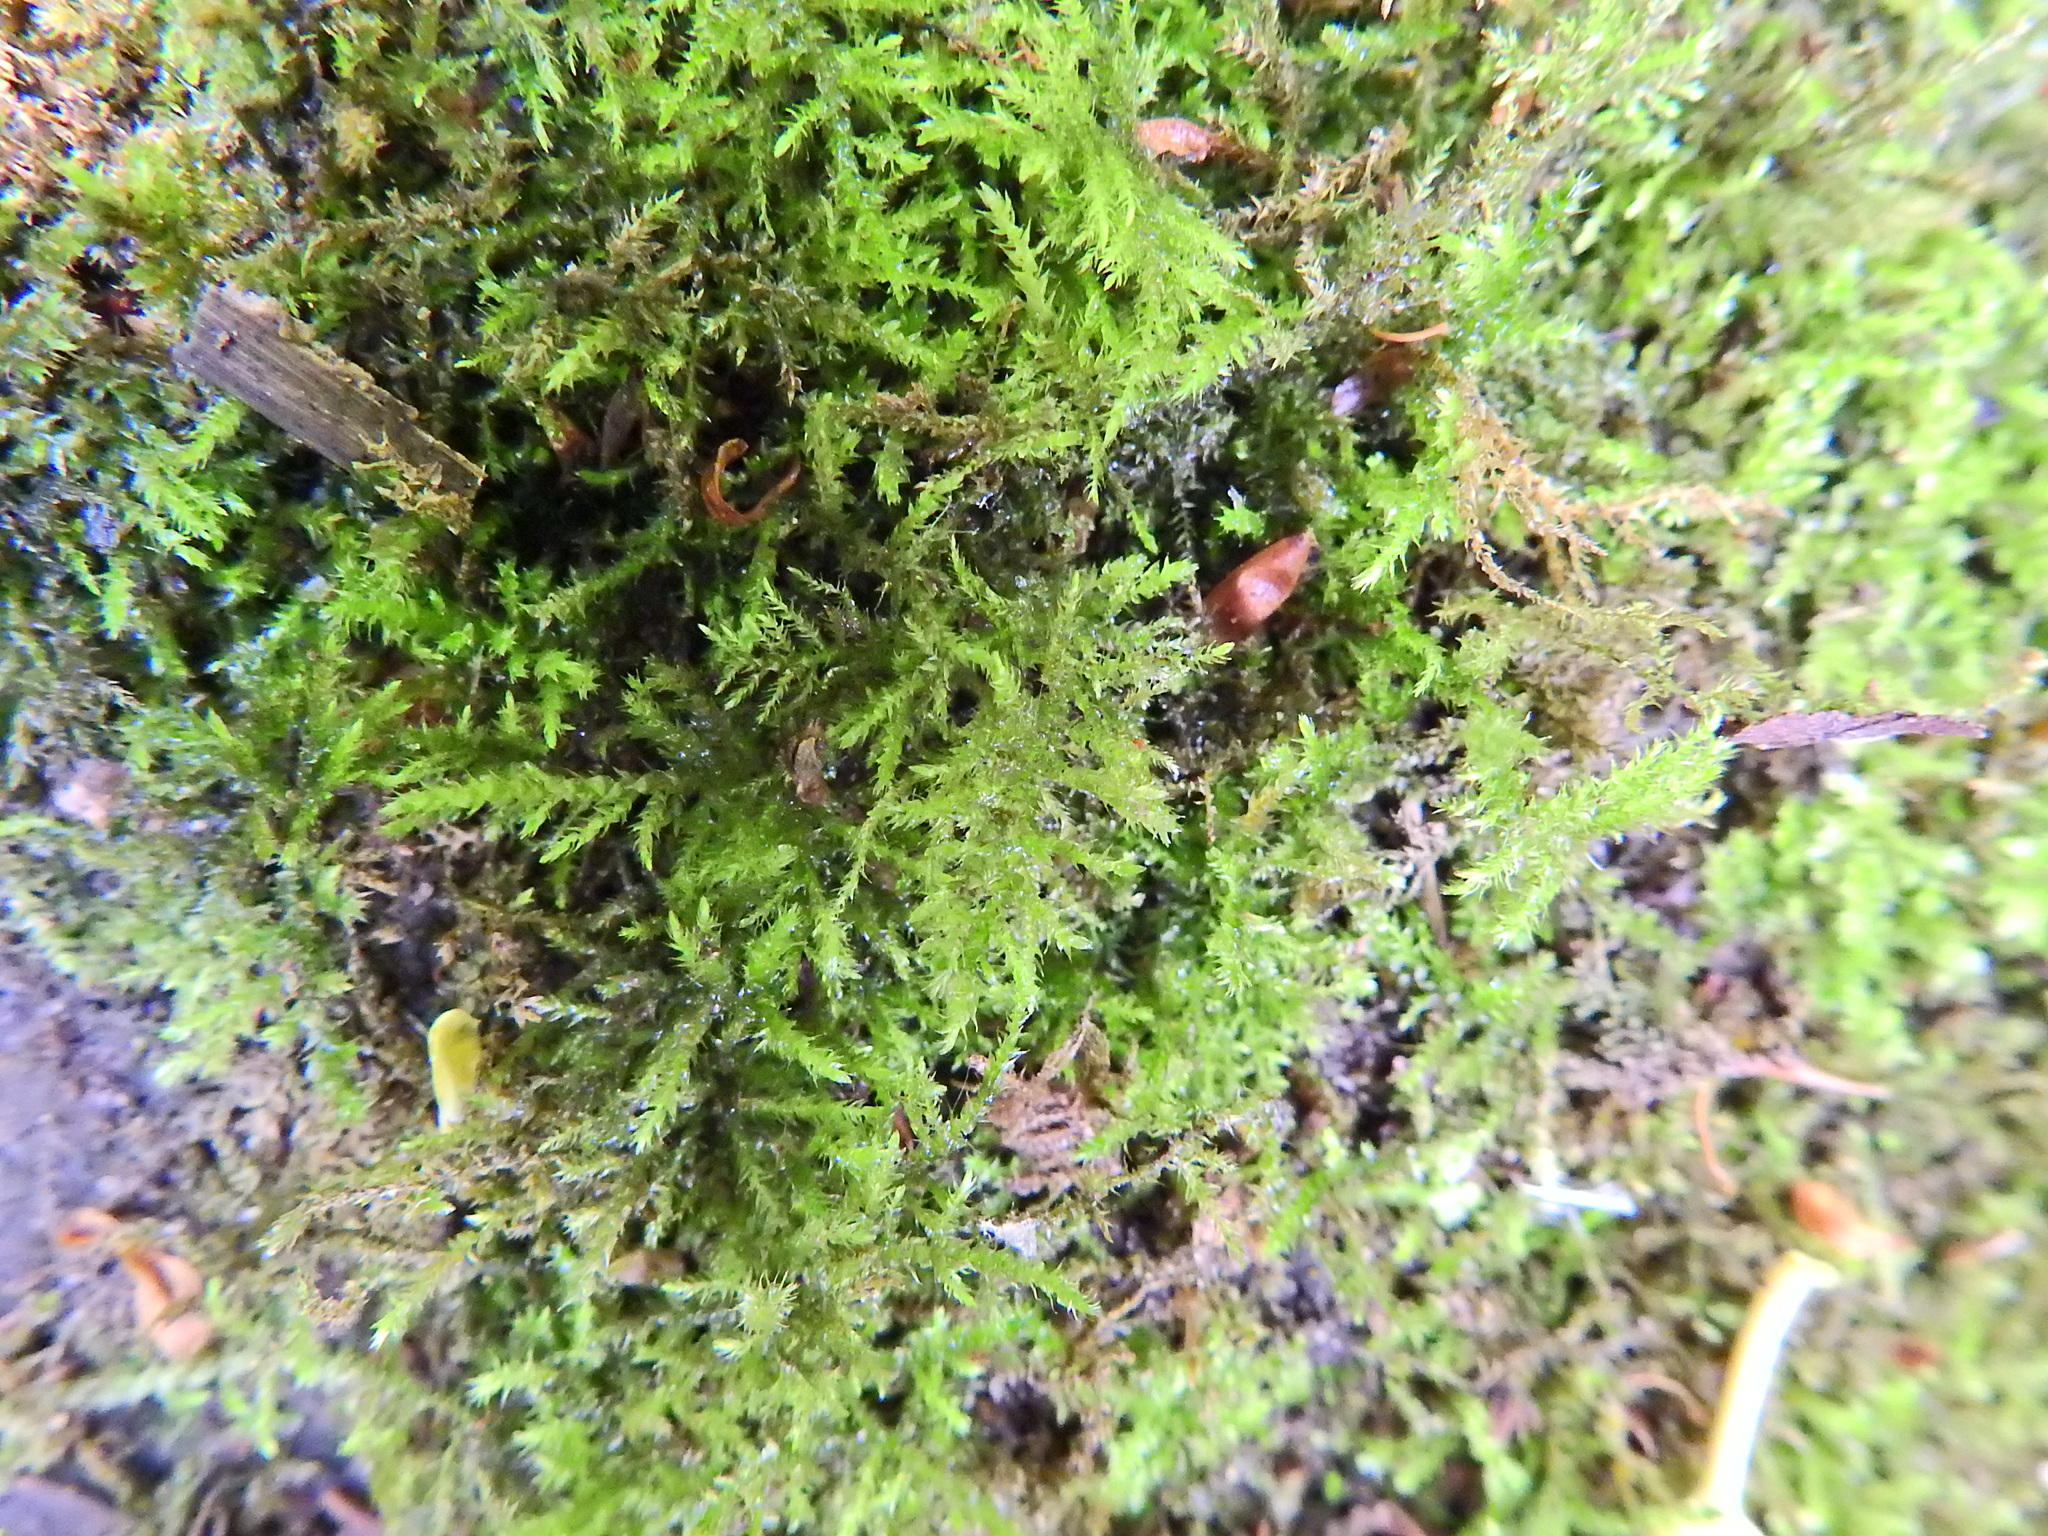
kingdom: Plantae
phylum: Bryophyta
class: Bryopsida
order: Hypnales
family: Brachytheciaceae
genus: Kindbergia
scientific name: Kindbergia praelonga
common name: Slender beaked moss
